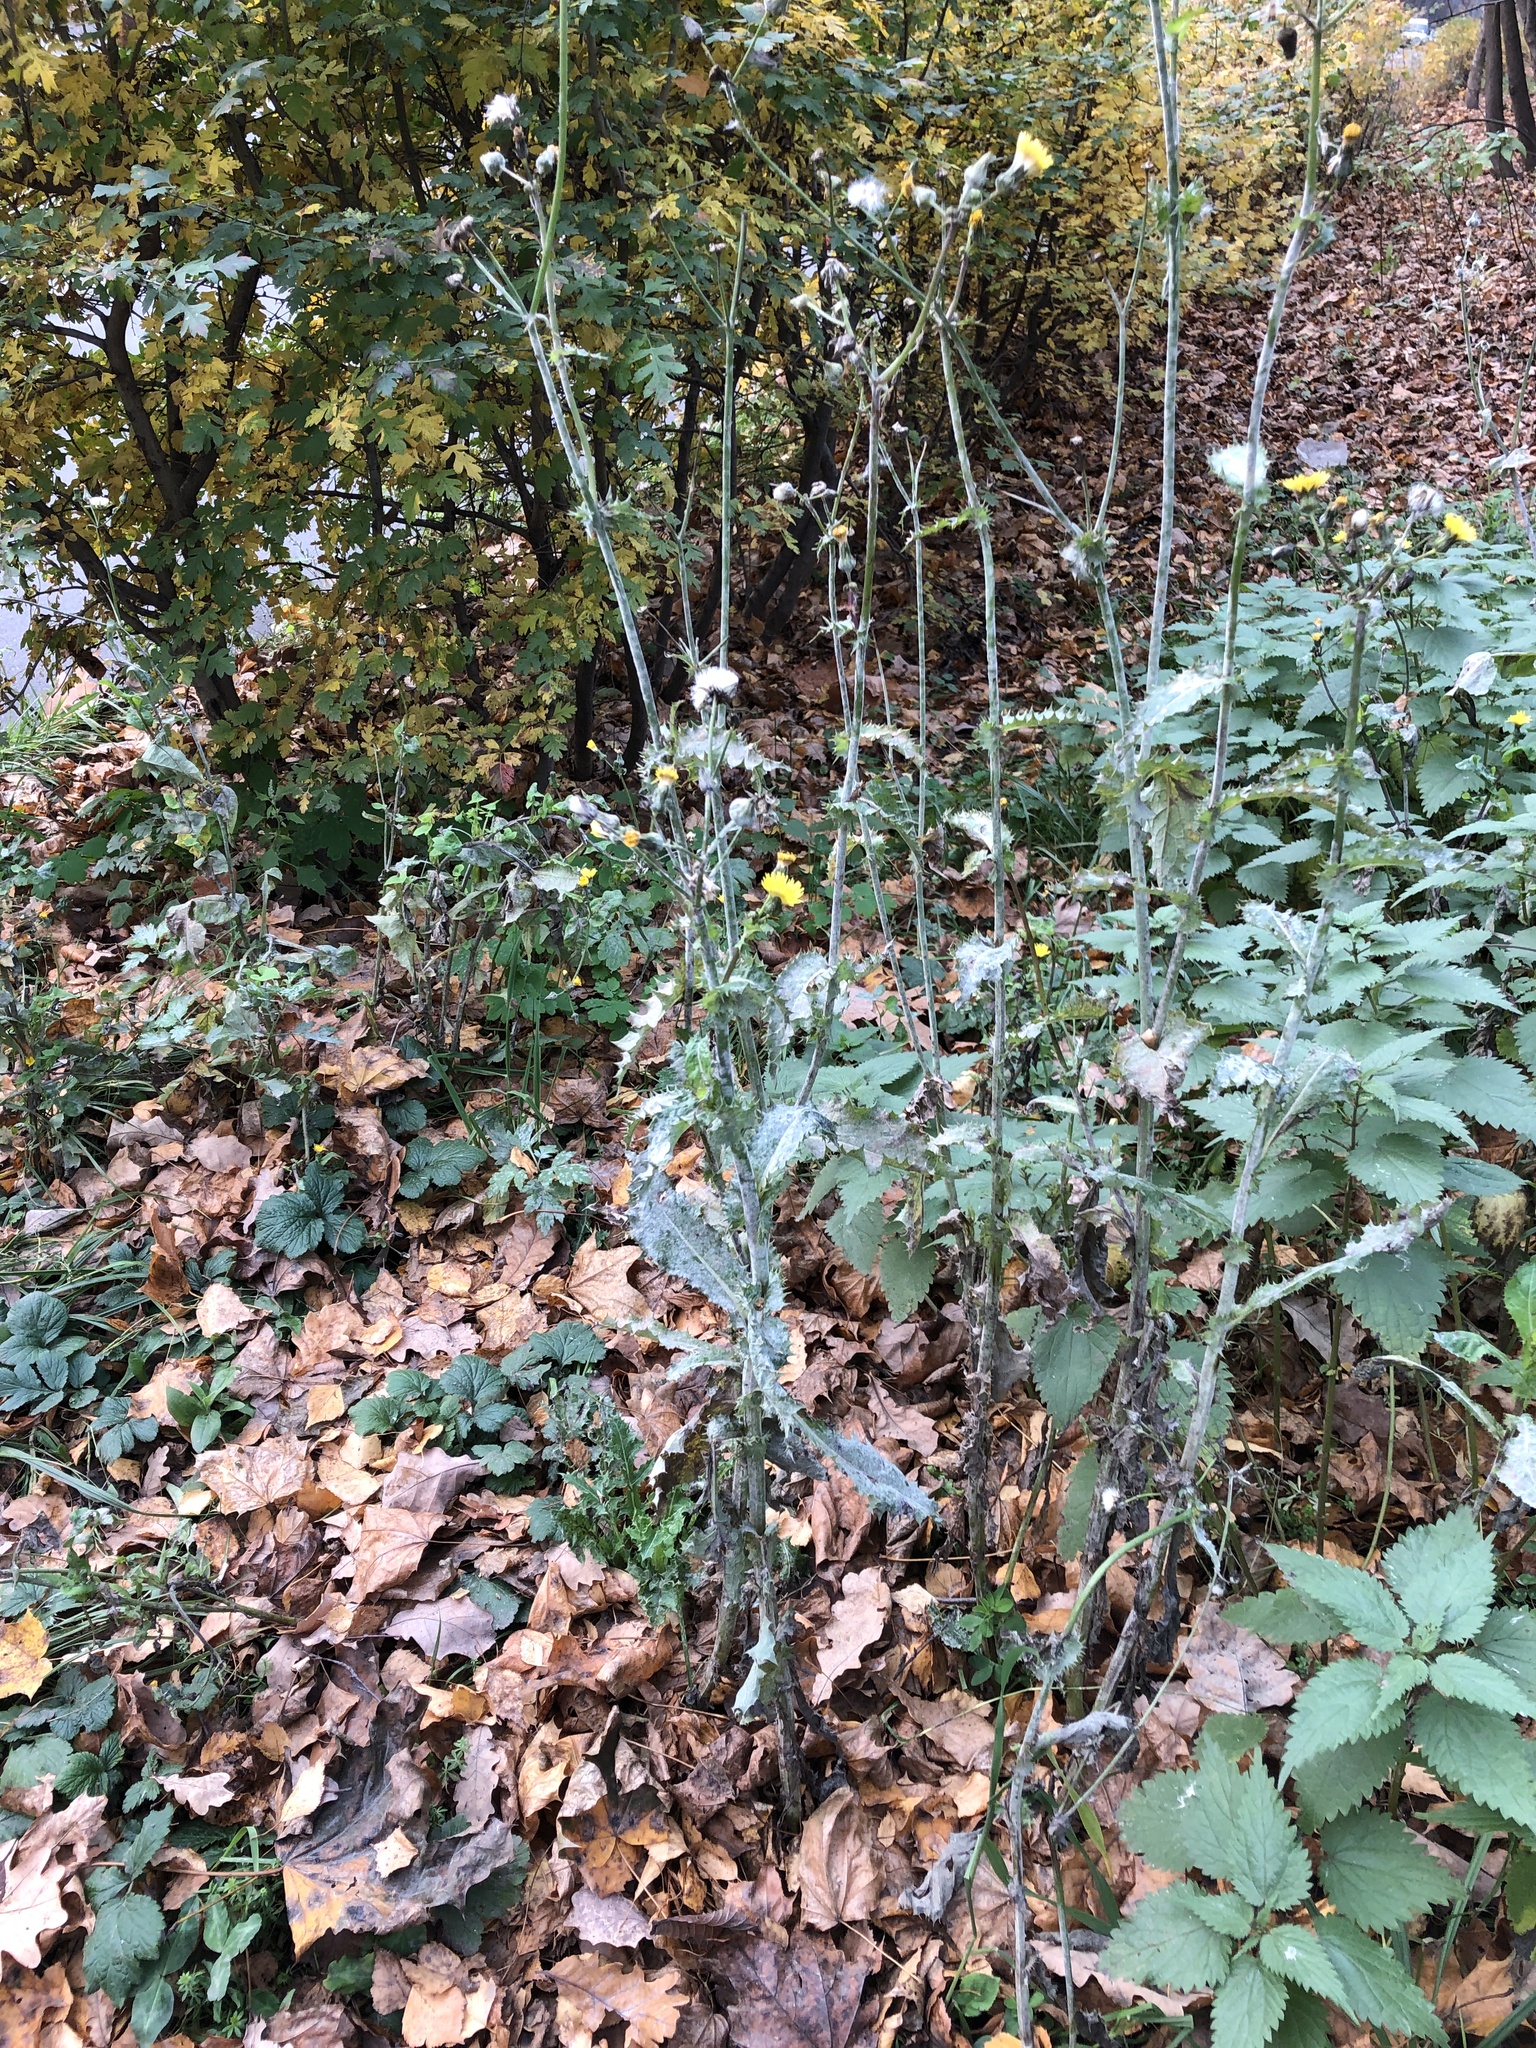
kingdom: Plantae
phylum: Tracheophyta
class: Magnoliopsida
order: Asterales
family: Asteraceae
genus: Sonchus
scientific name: Sonchus asper
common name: Prickly sow-thistle
